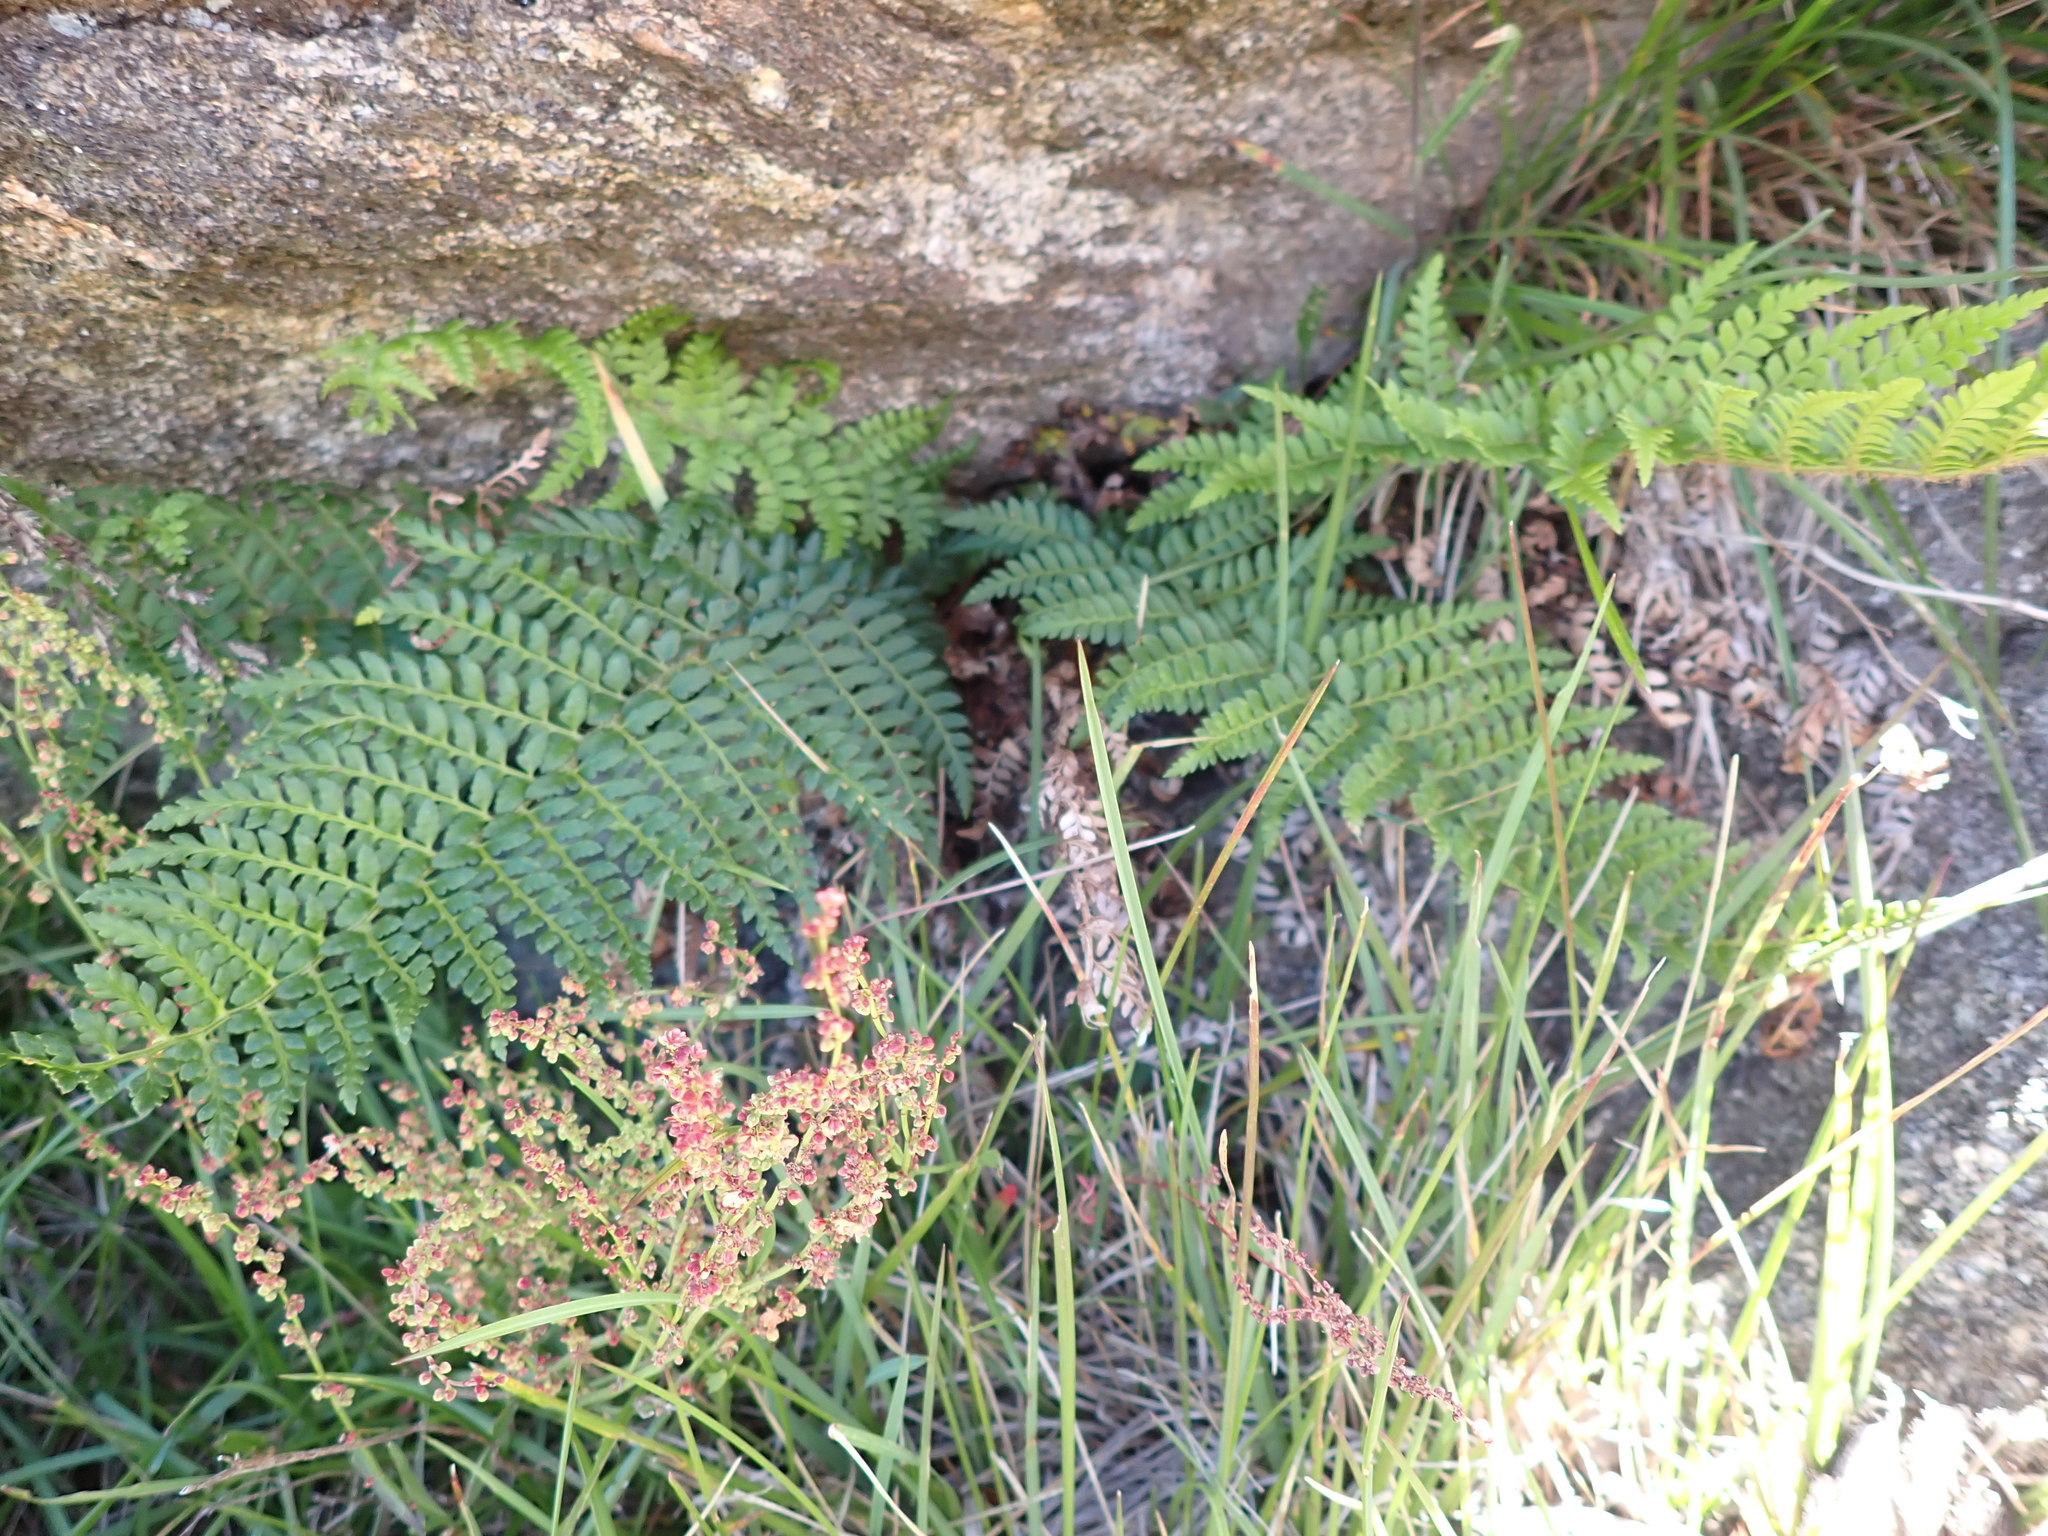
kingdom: Plantae
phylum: Tracheophyta
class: Polypodiopsida
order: Polypodiales
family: Dryopteridaceae
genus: Polystichum
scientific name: Polystichum proliferum
